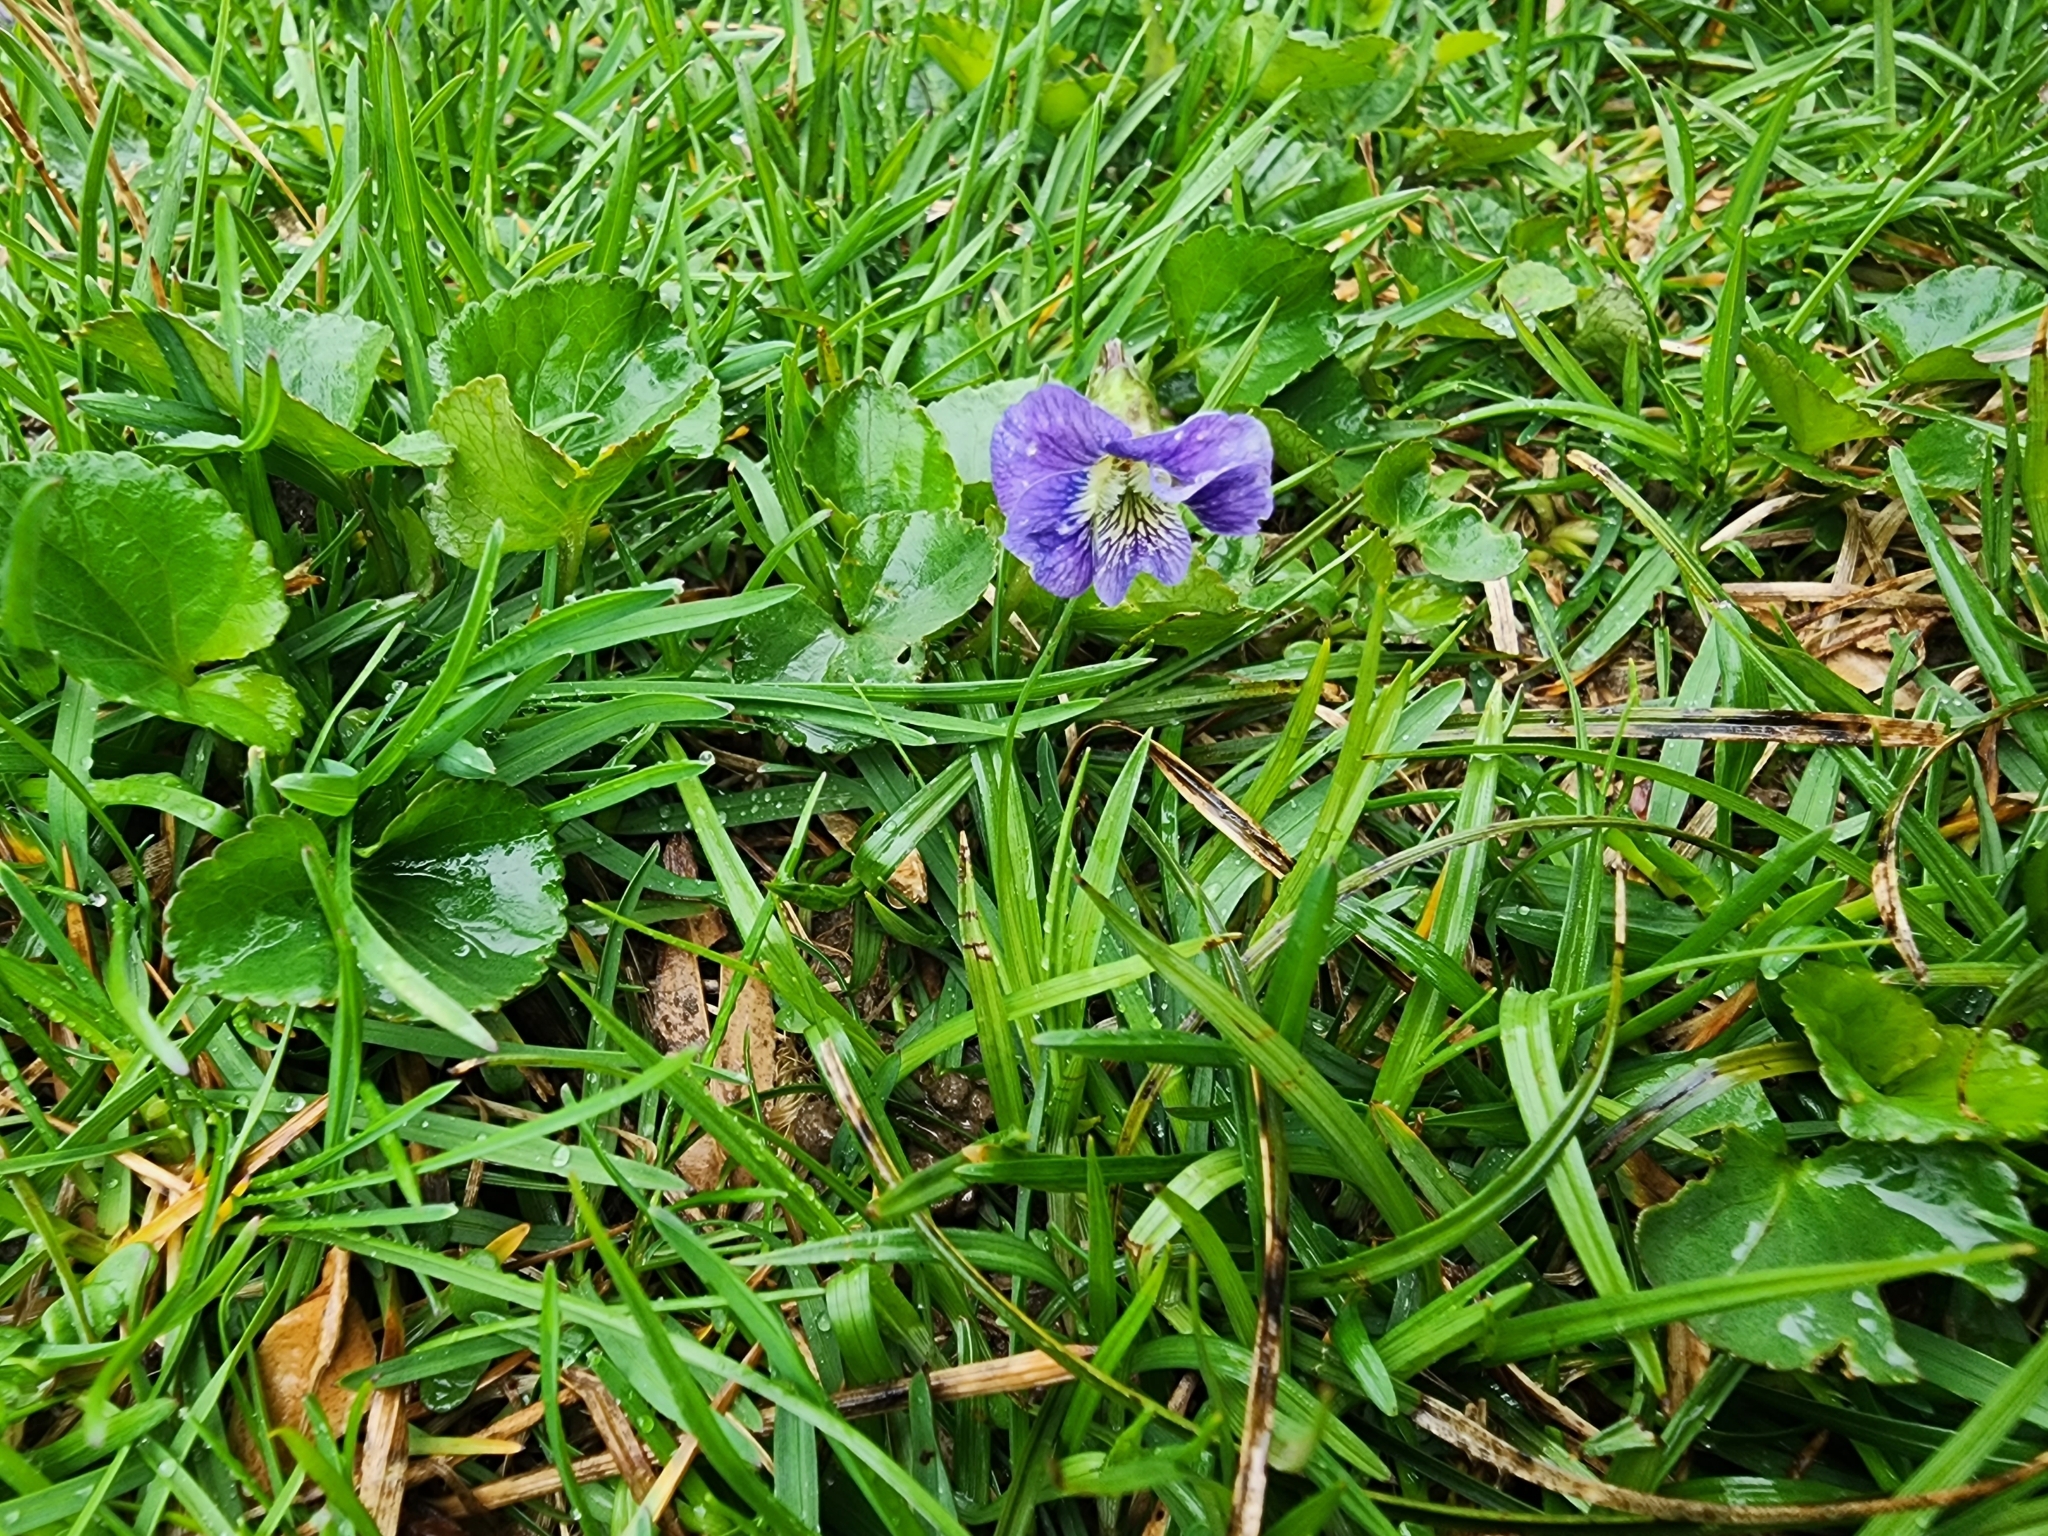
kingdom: Plantae
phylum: Tracheophyta
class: Magnoliopsida
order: Malpighiales
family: Violaceae
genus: Viola
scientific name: Viola sororia
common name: Dooryard violet
